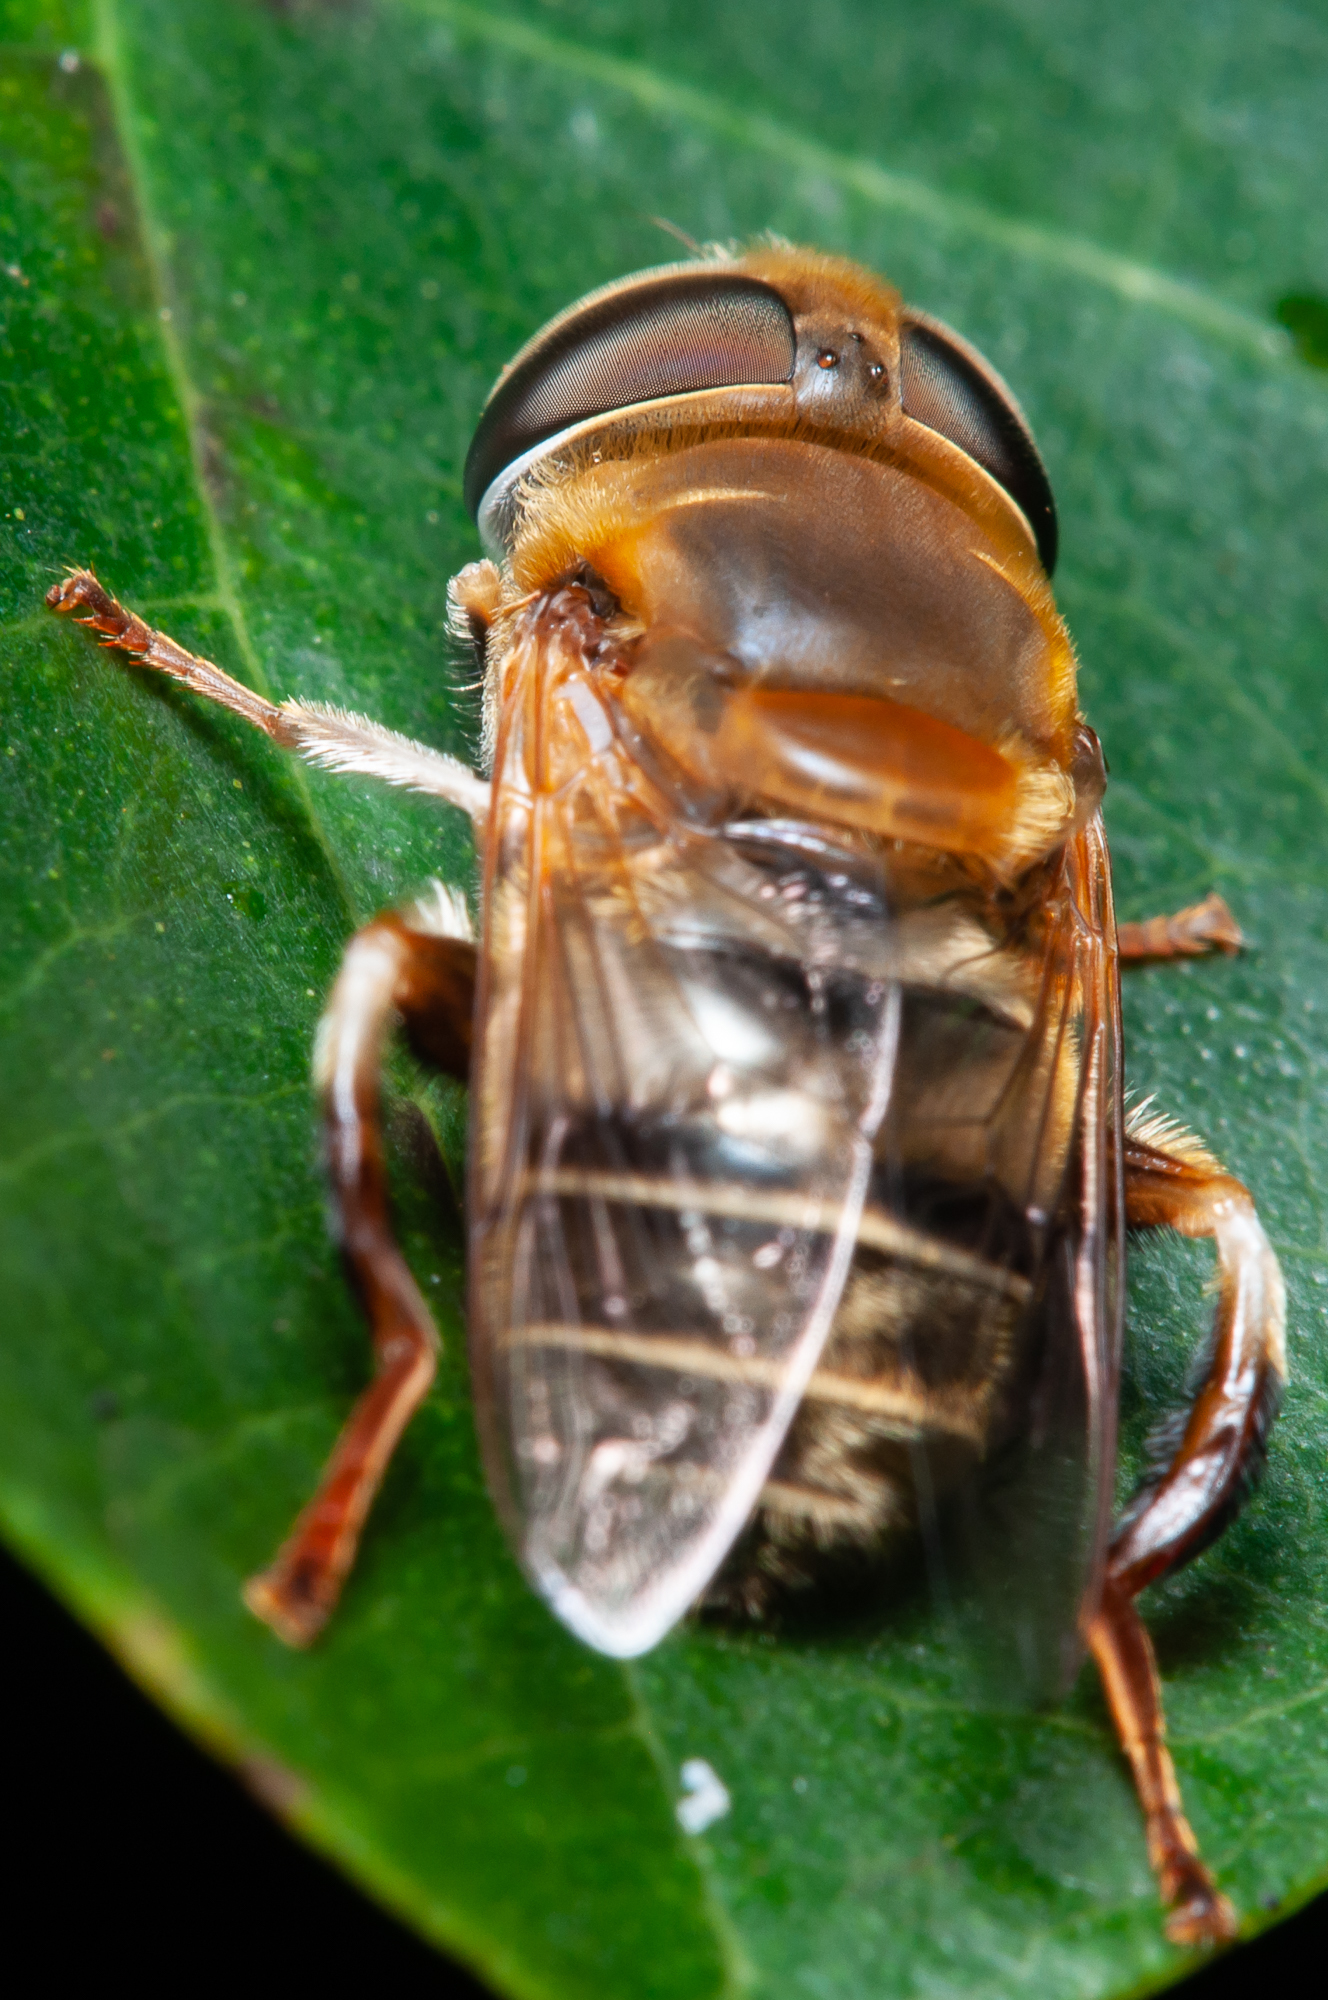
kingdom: Animalia
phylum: Arthropoda
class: Insecta
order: Diptera
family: Syrphidae
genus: Palpada
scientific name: Palpada mexicana
